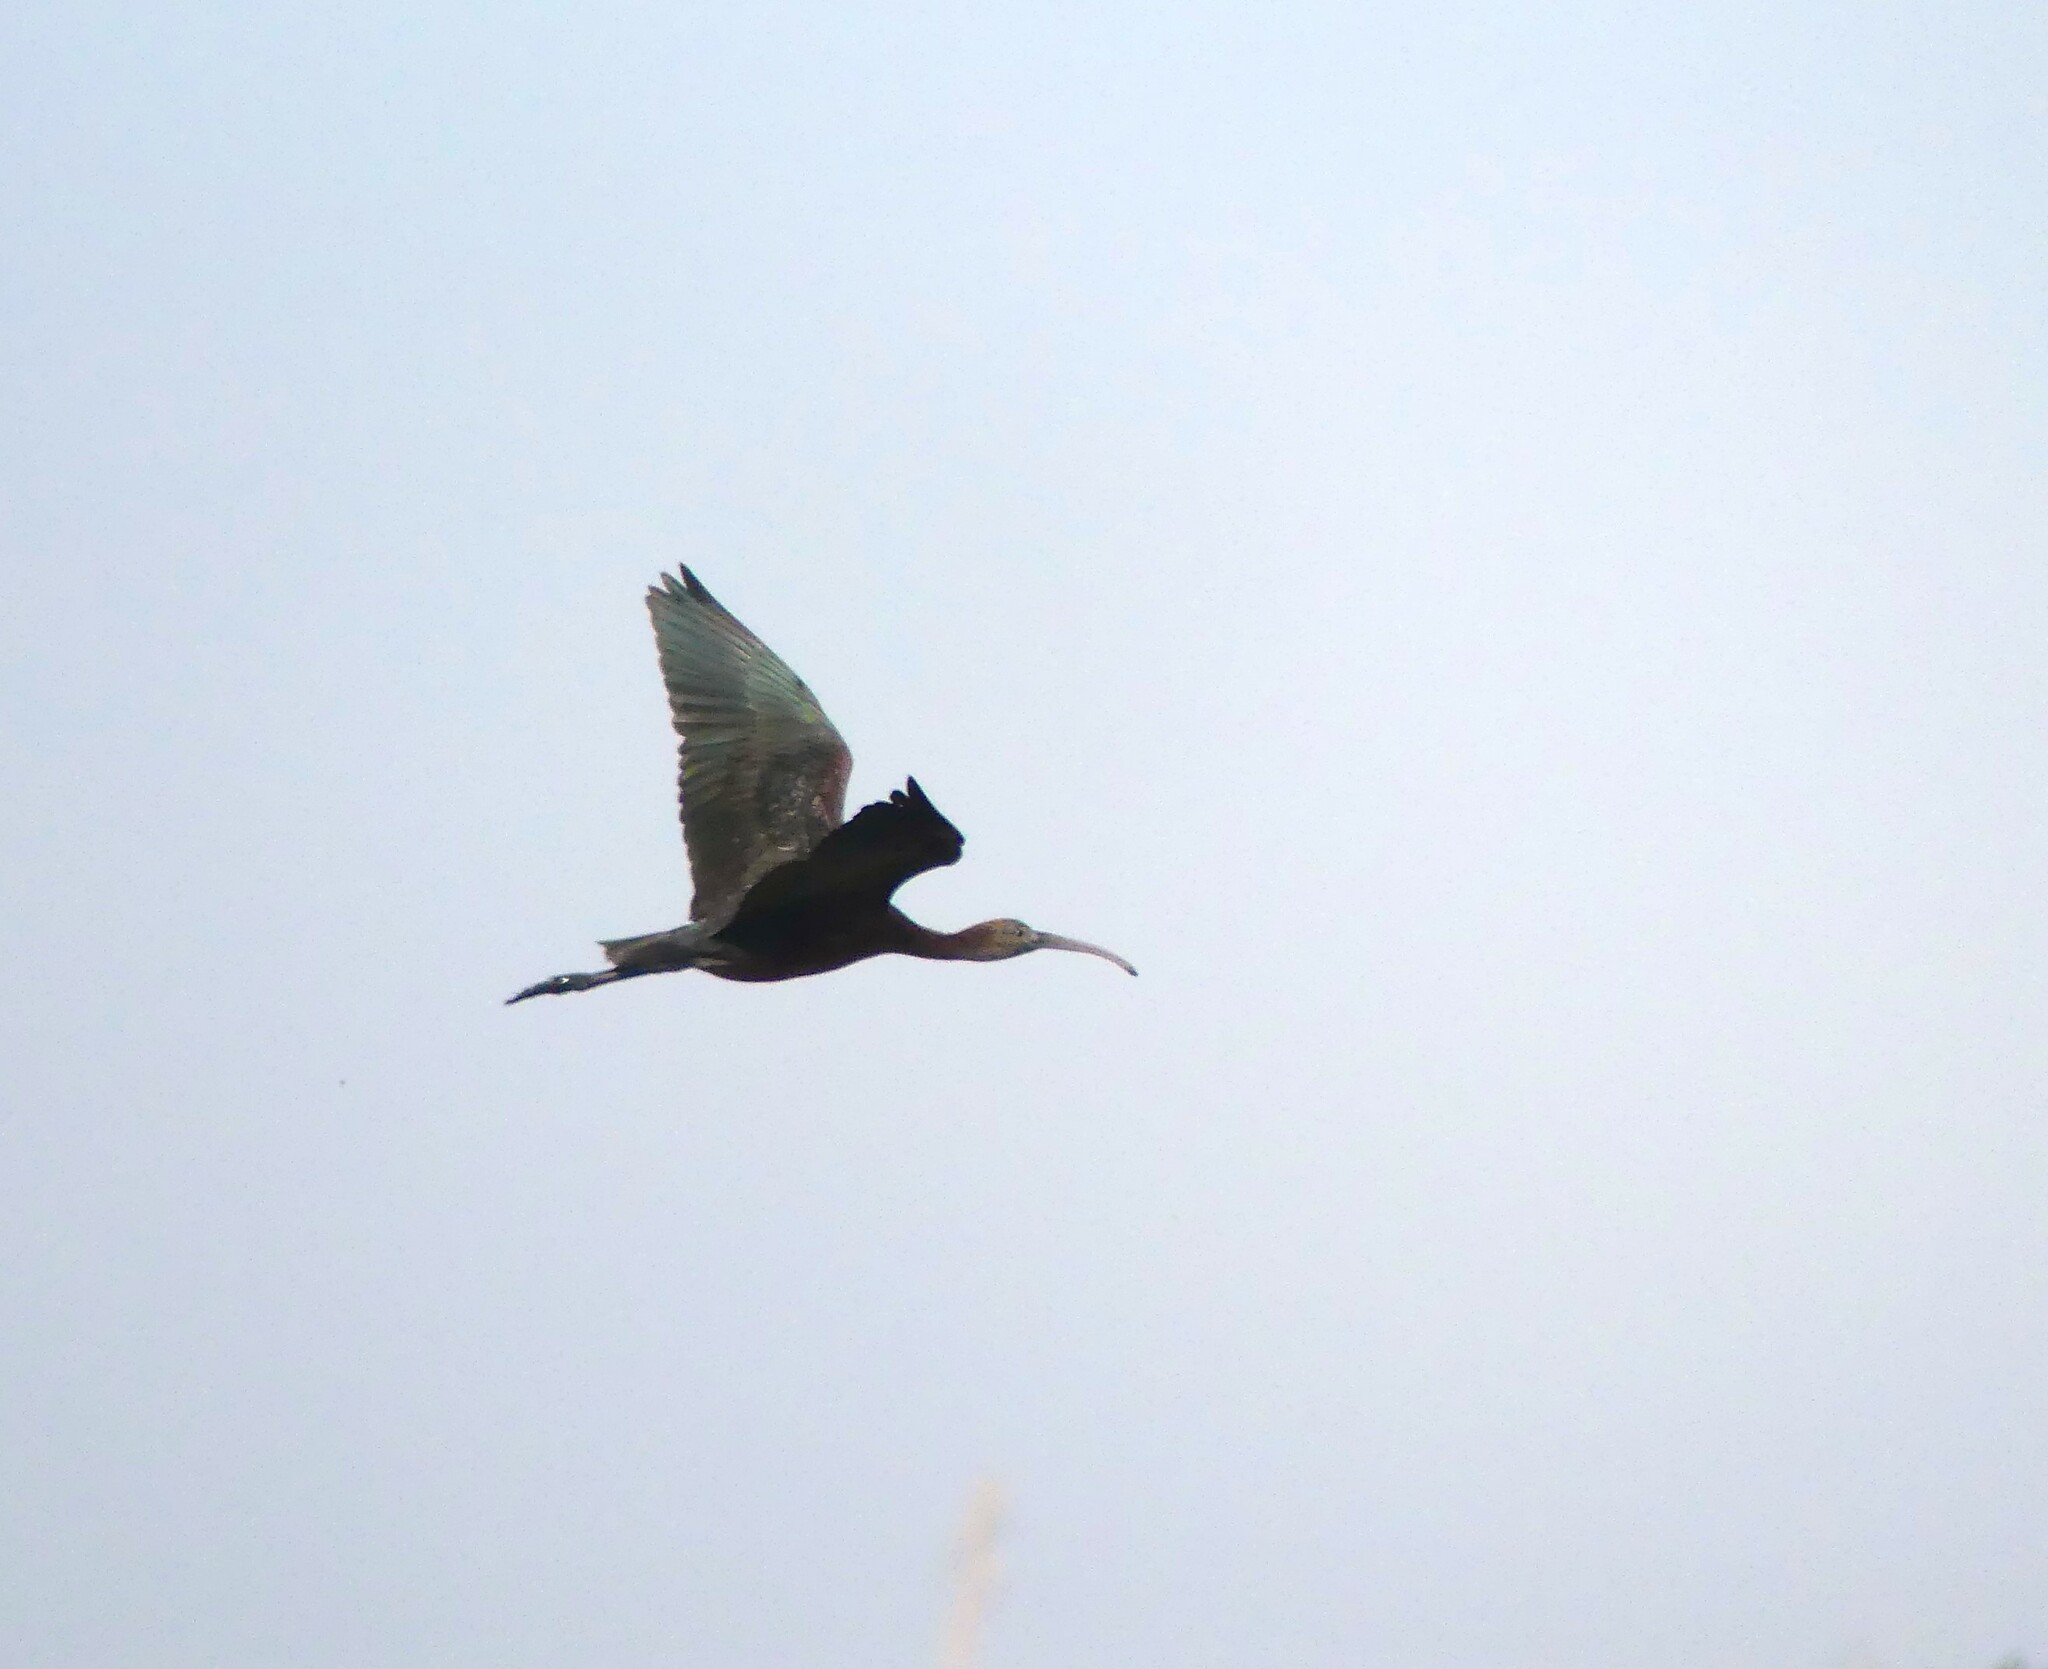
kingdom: Animalia
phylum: Chordata
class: Aves
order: Pelecaniformes
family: Threskiornithidae
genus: Plegadis
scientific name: Plegadis falcinellus
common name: Glossy ibis
